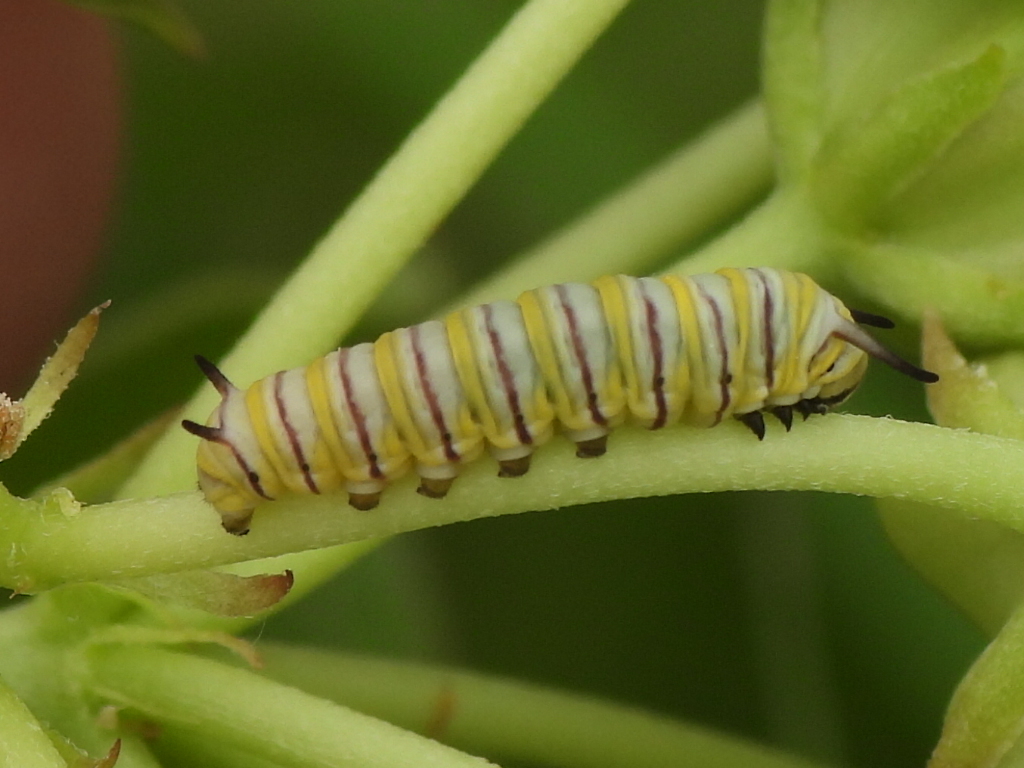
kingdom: Animalia
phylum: Arthropoda
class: Insecta
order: Lepidoptera
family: Nymphalidae
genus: Danaus
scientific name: Danaus plexippus
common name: Monarch
